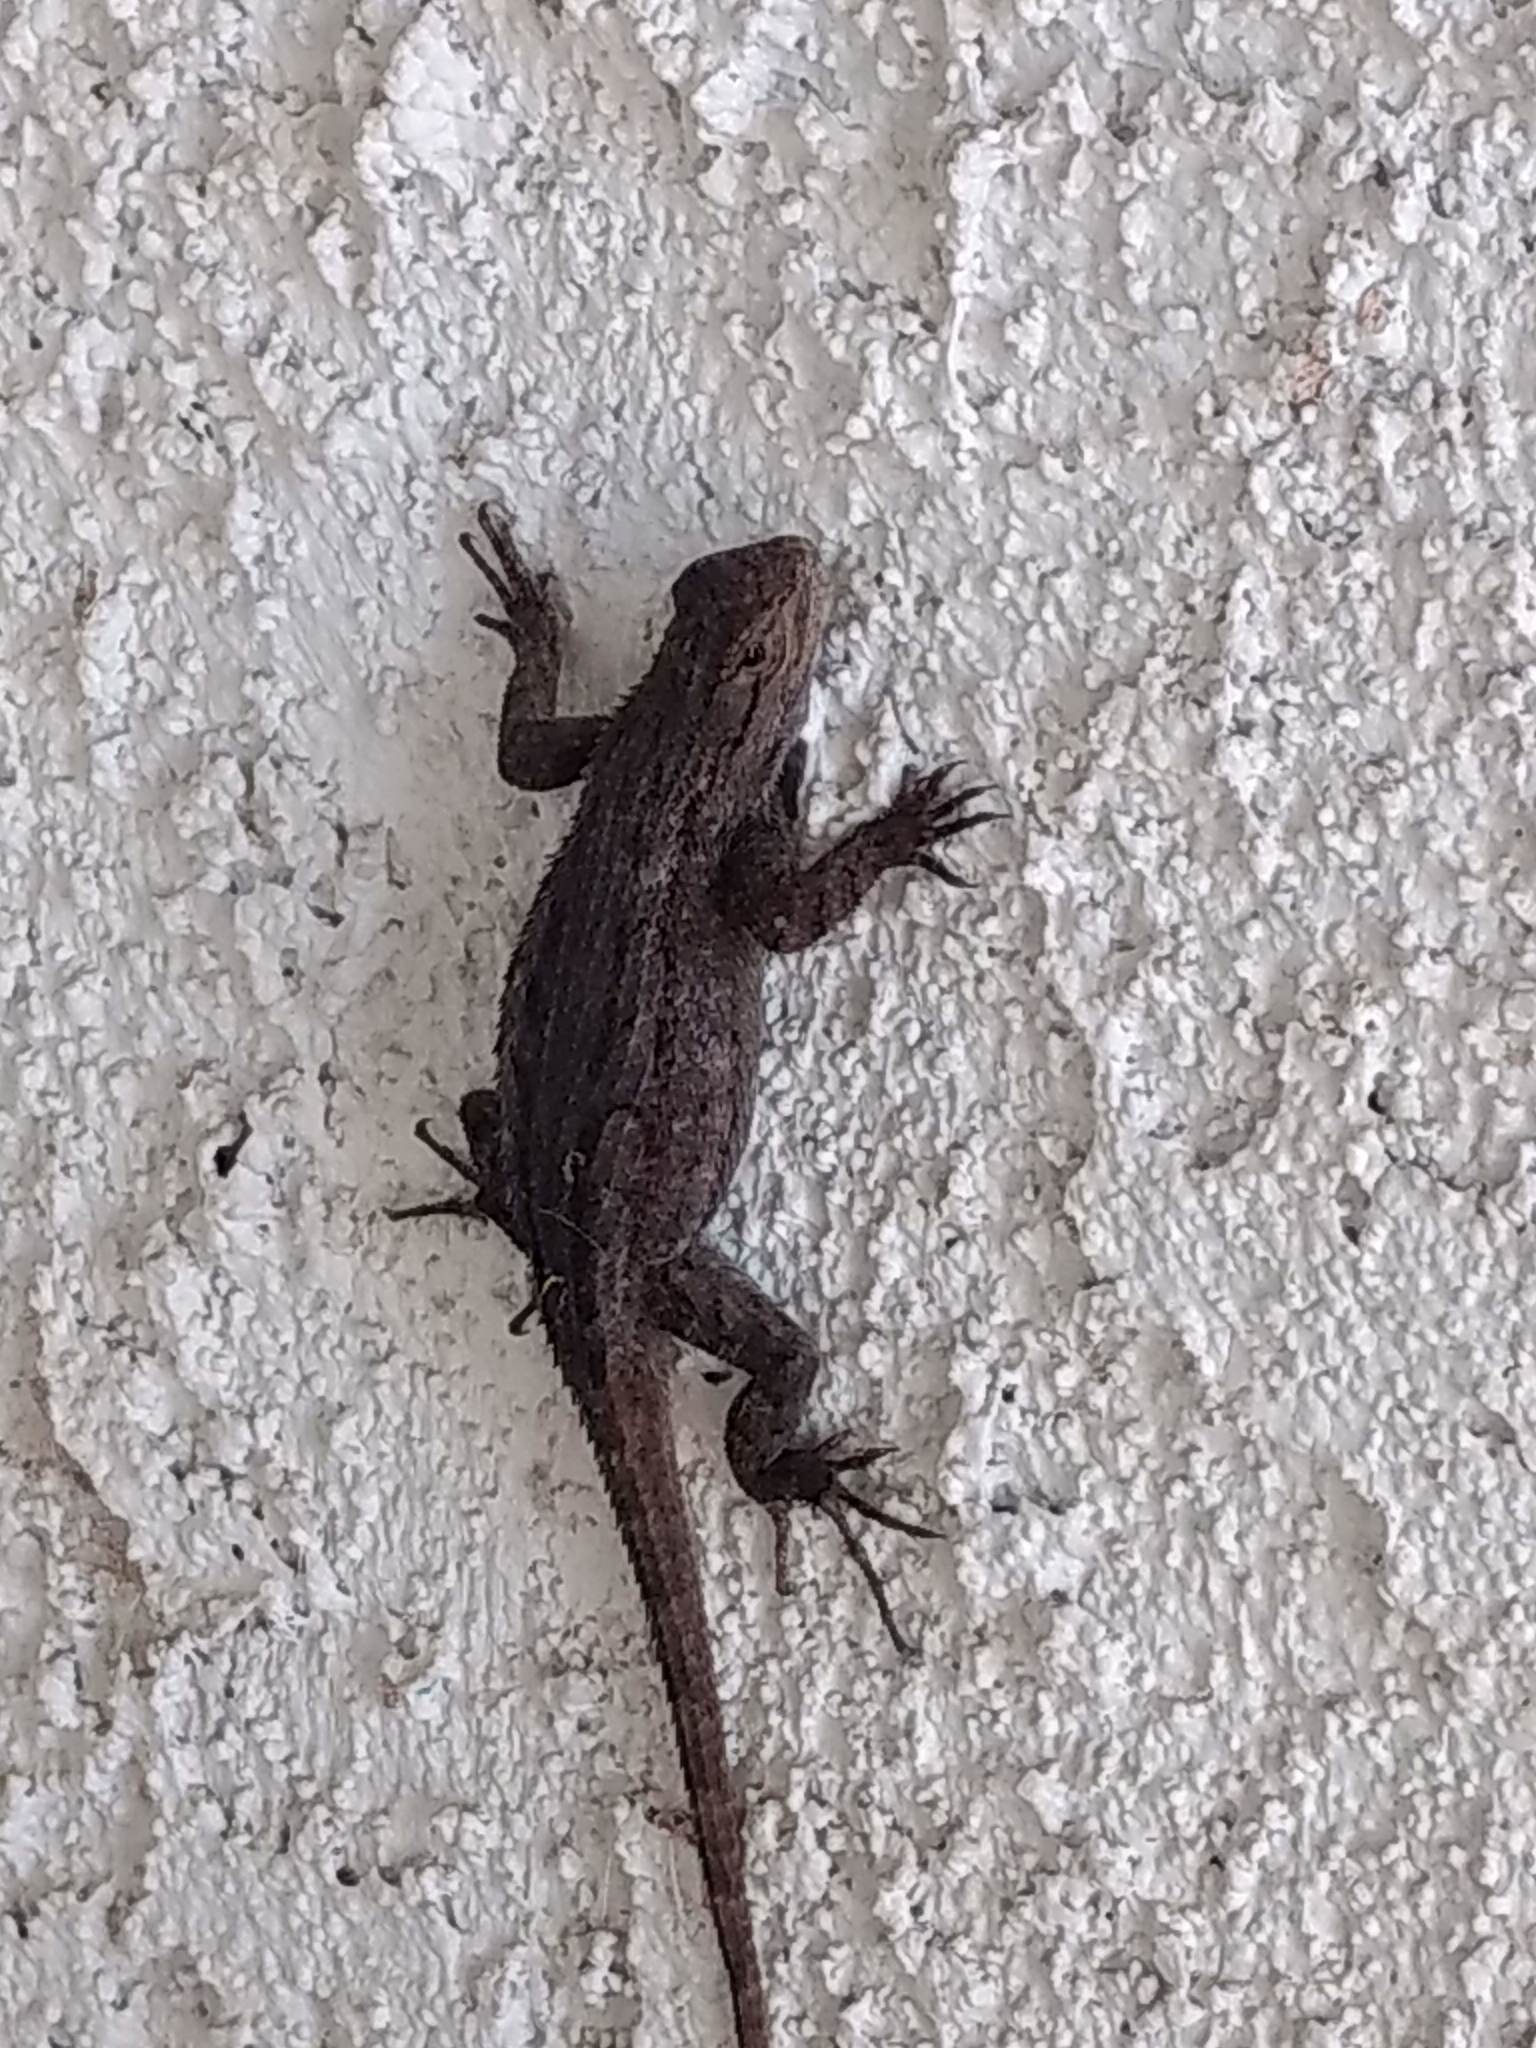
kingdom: Animalia
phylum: Chordata
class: Squamata
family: Phrynosomatidae
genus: Sceloporus
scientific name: Sceloporus occidentalis
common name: Western fence lizard
